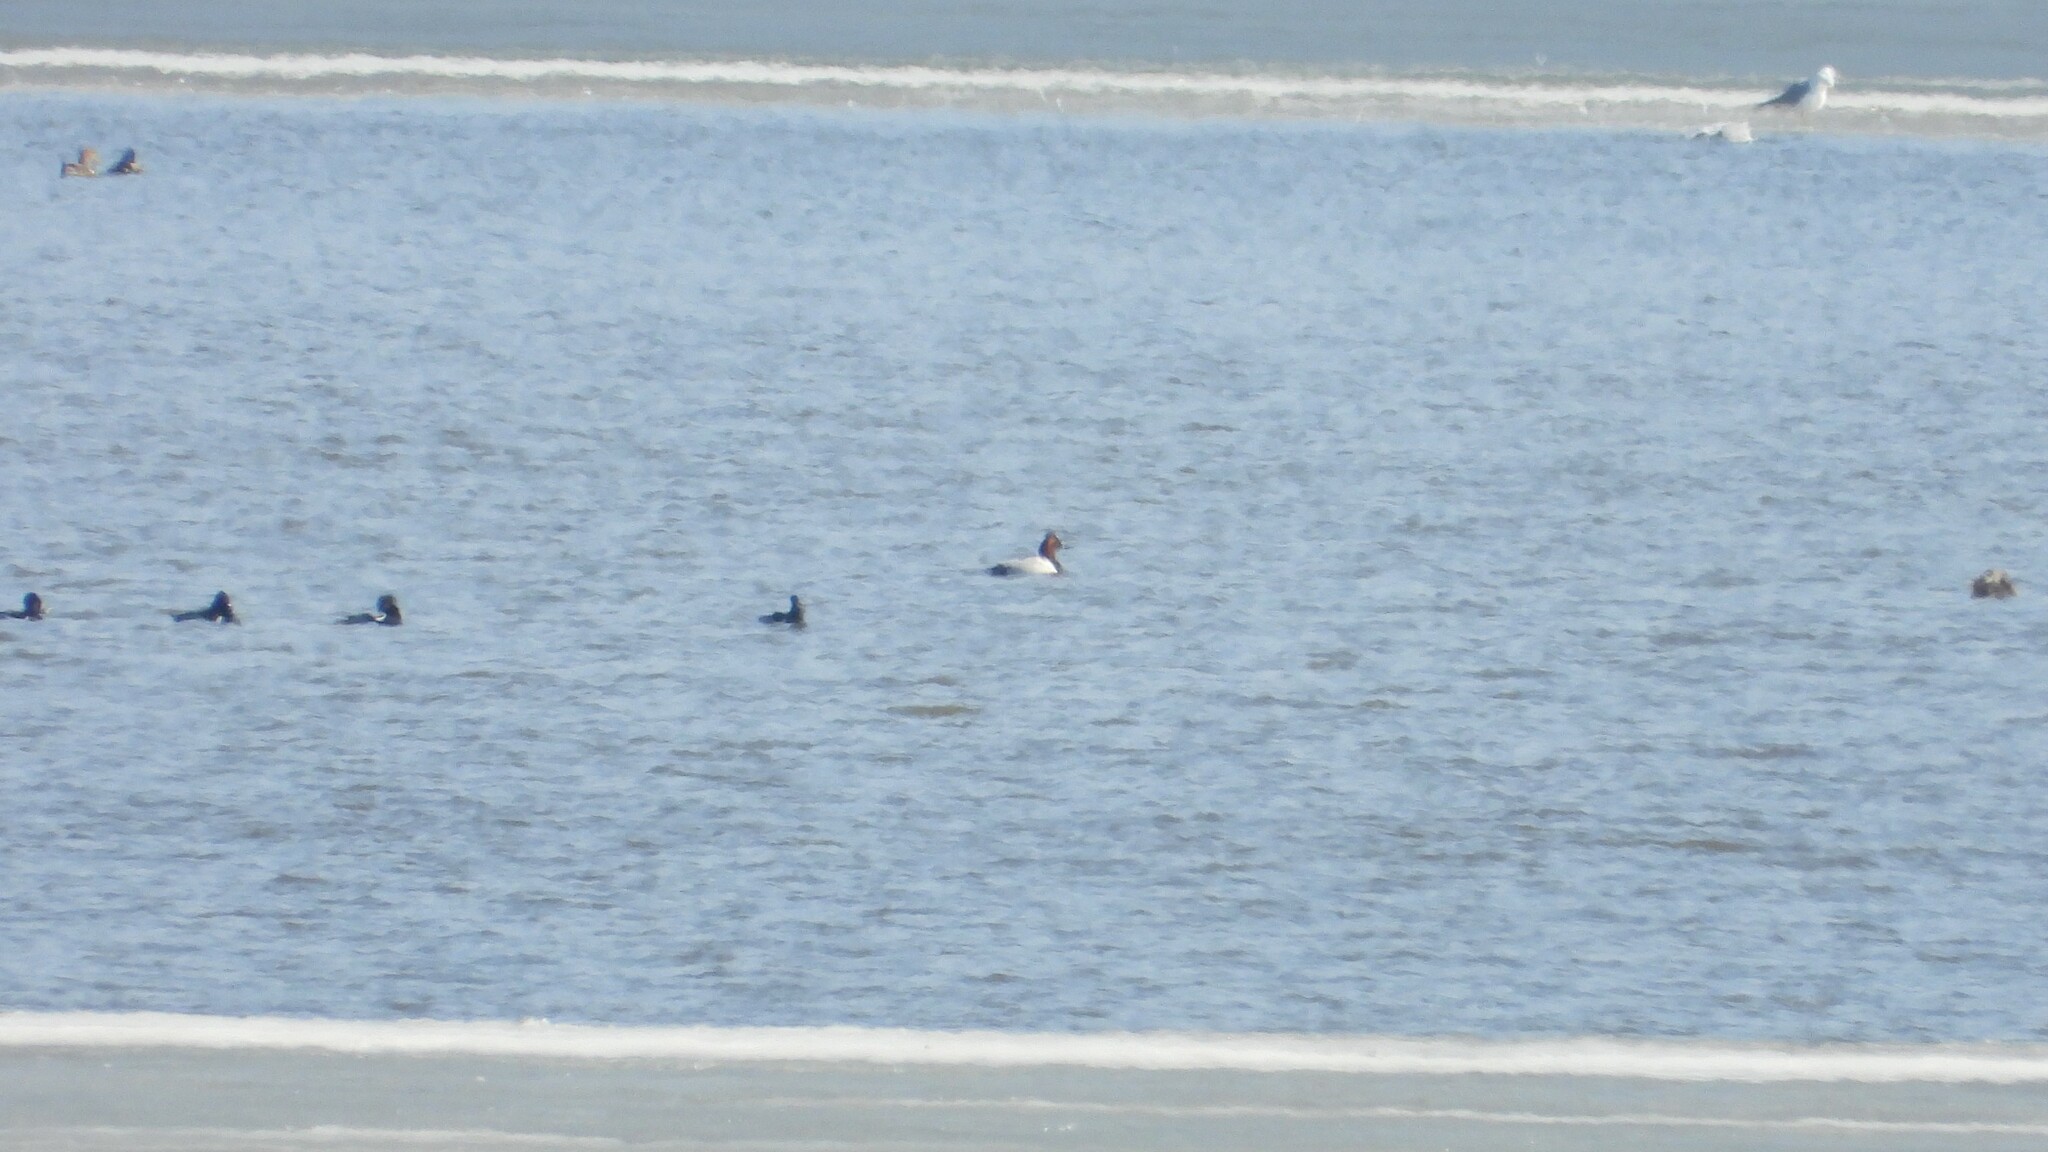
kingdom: Animalia
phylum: Chordata
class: Aves
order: Anseriformes
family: Anatidae
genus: Aythya
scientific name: Aythya valisineria
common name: Canvasback
